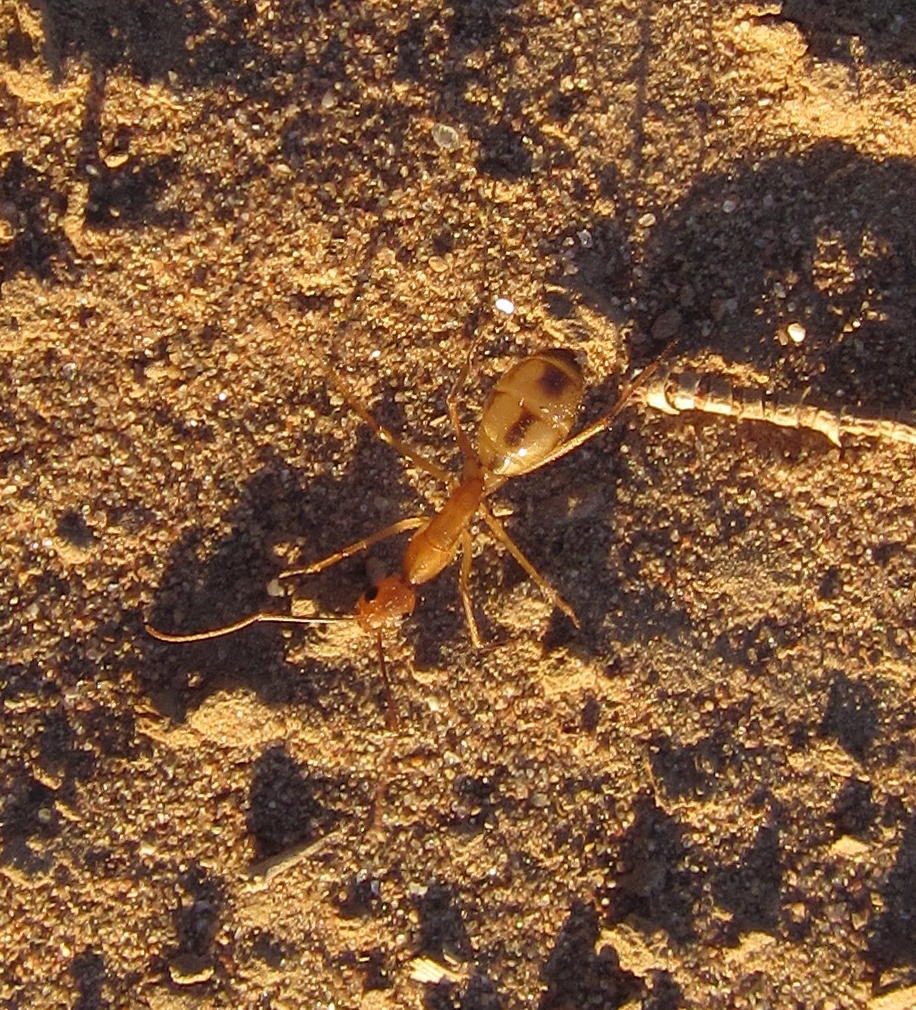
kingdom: Animalia
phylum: Arthropoda
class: Insecta
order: Hymenoptera
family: Formicidae
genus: Camponotus
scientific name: Camponotus hova
